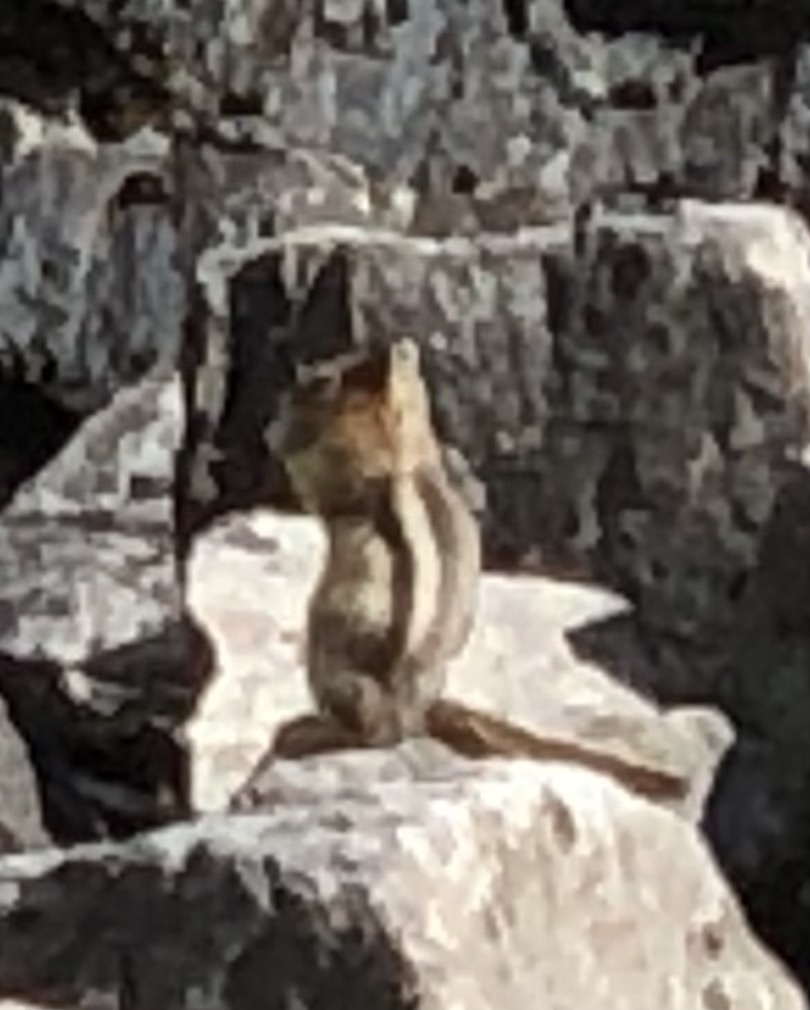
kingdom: Animalia
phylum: Chordata
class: Mammalia
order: Rodentia
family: Sciuridae
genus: Callospermophilus
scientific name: Callospermophilus lateralis
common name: Golden-mantled ground squirrel
